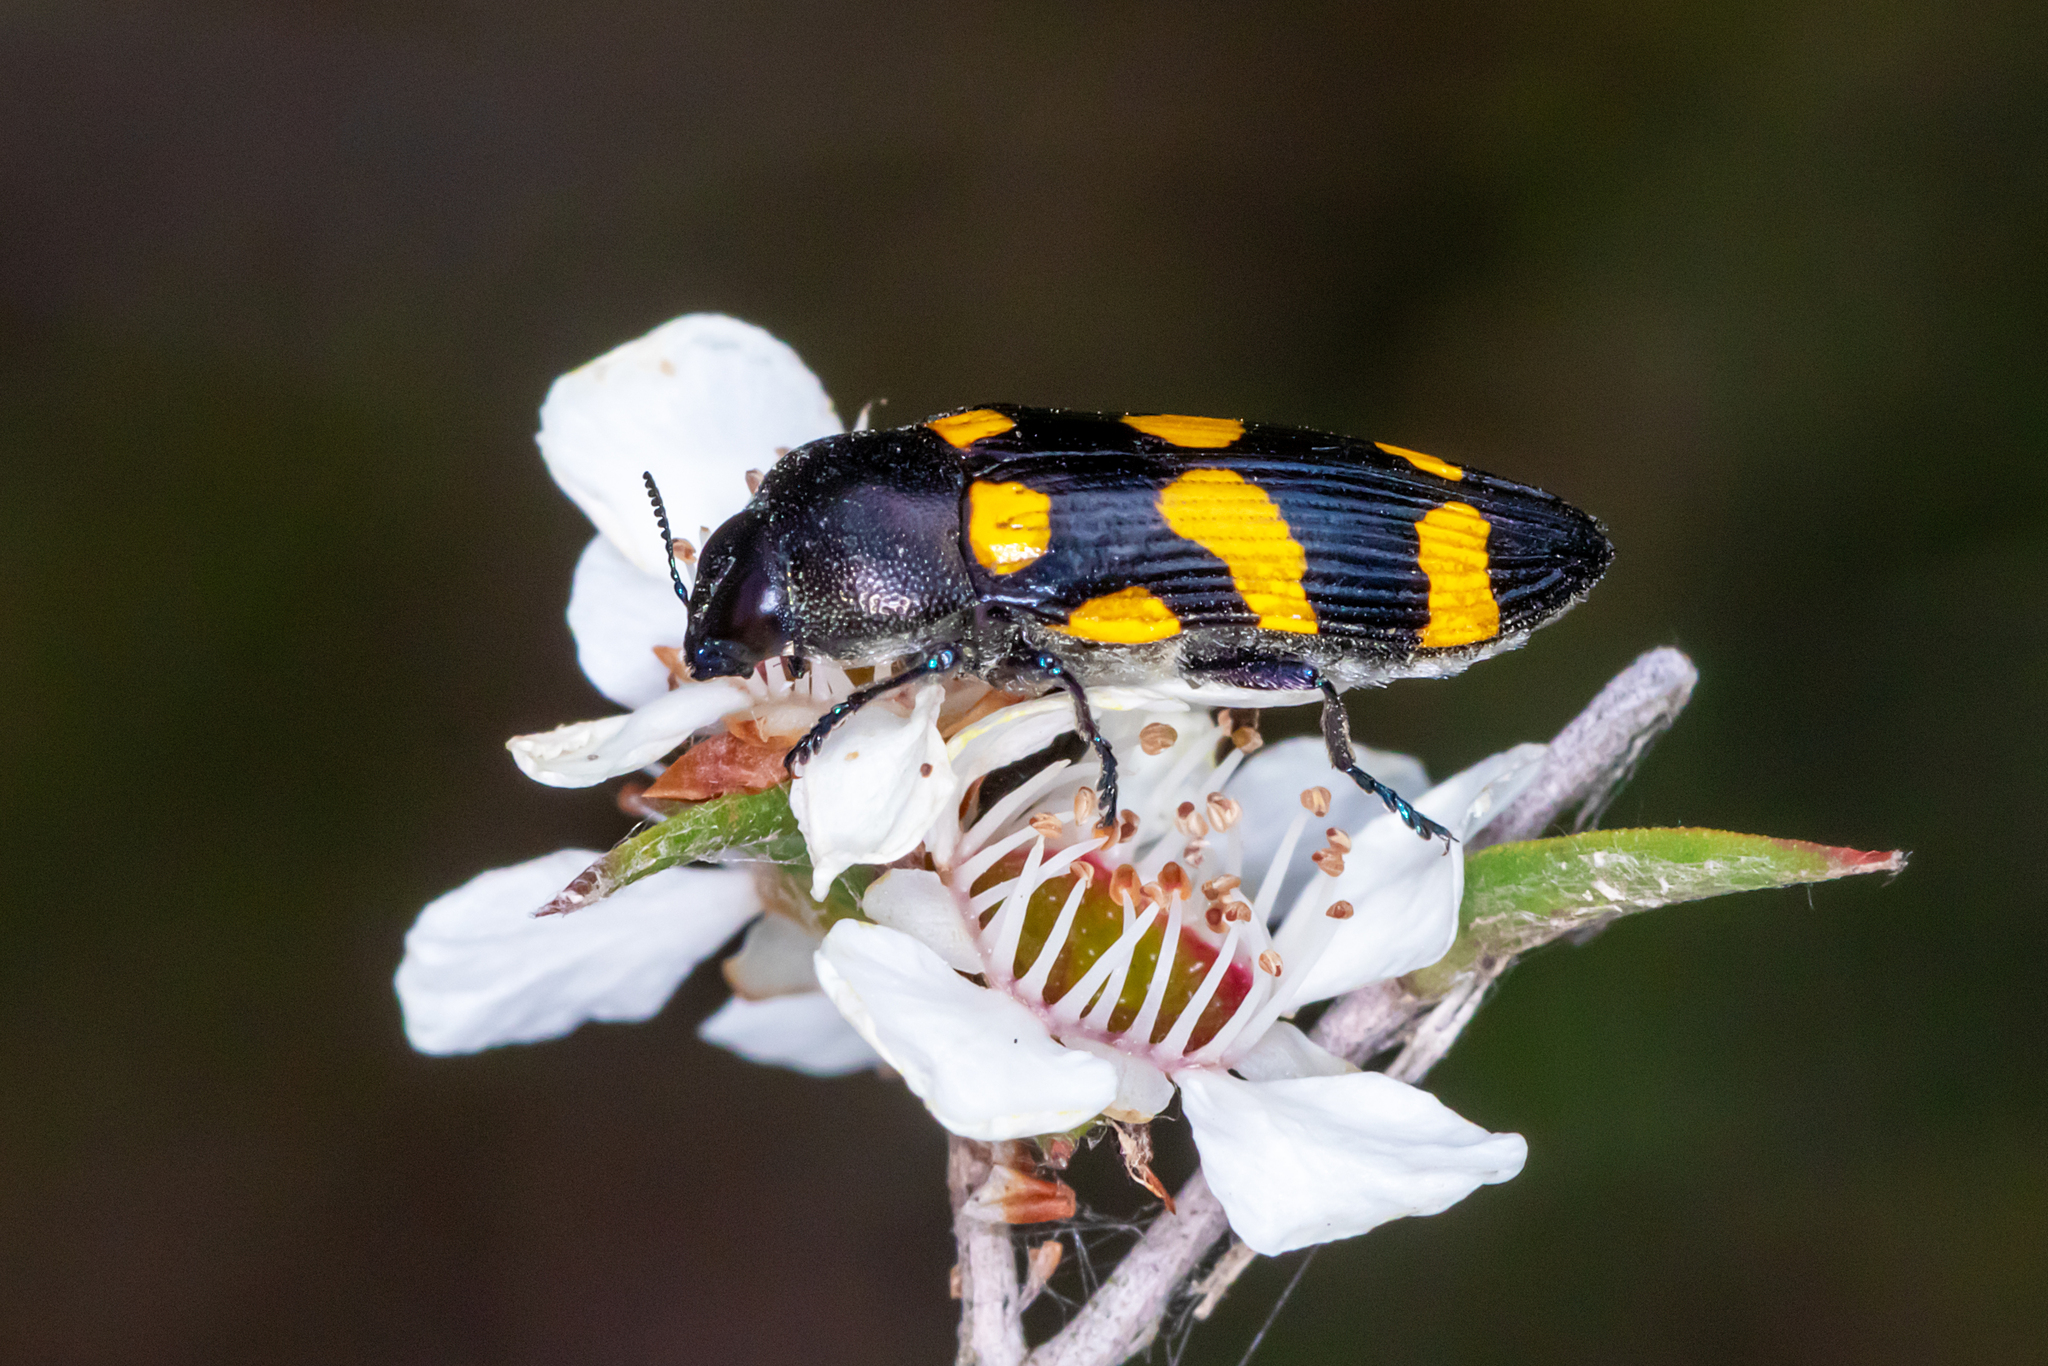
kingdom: Animalia
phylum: Arthropoda
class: Insecta
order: Coleoptera
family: Buprestidae
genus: Castiarina
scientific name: Castiarina australasiae
